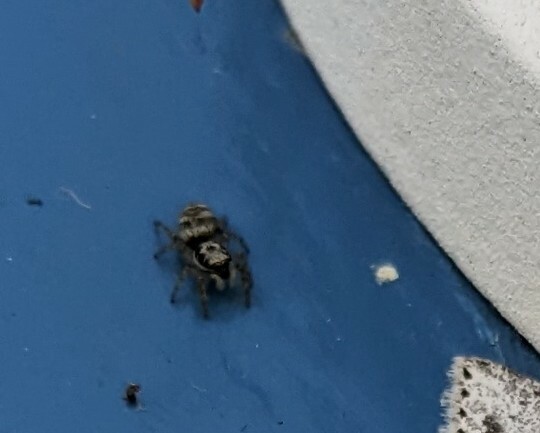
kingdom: Animalia
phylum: Arthropoda
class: Arachnida
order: Araneae
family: Salticidae
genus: Salticus
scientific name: Salticus scenicus
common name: Zebra jumper
